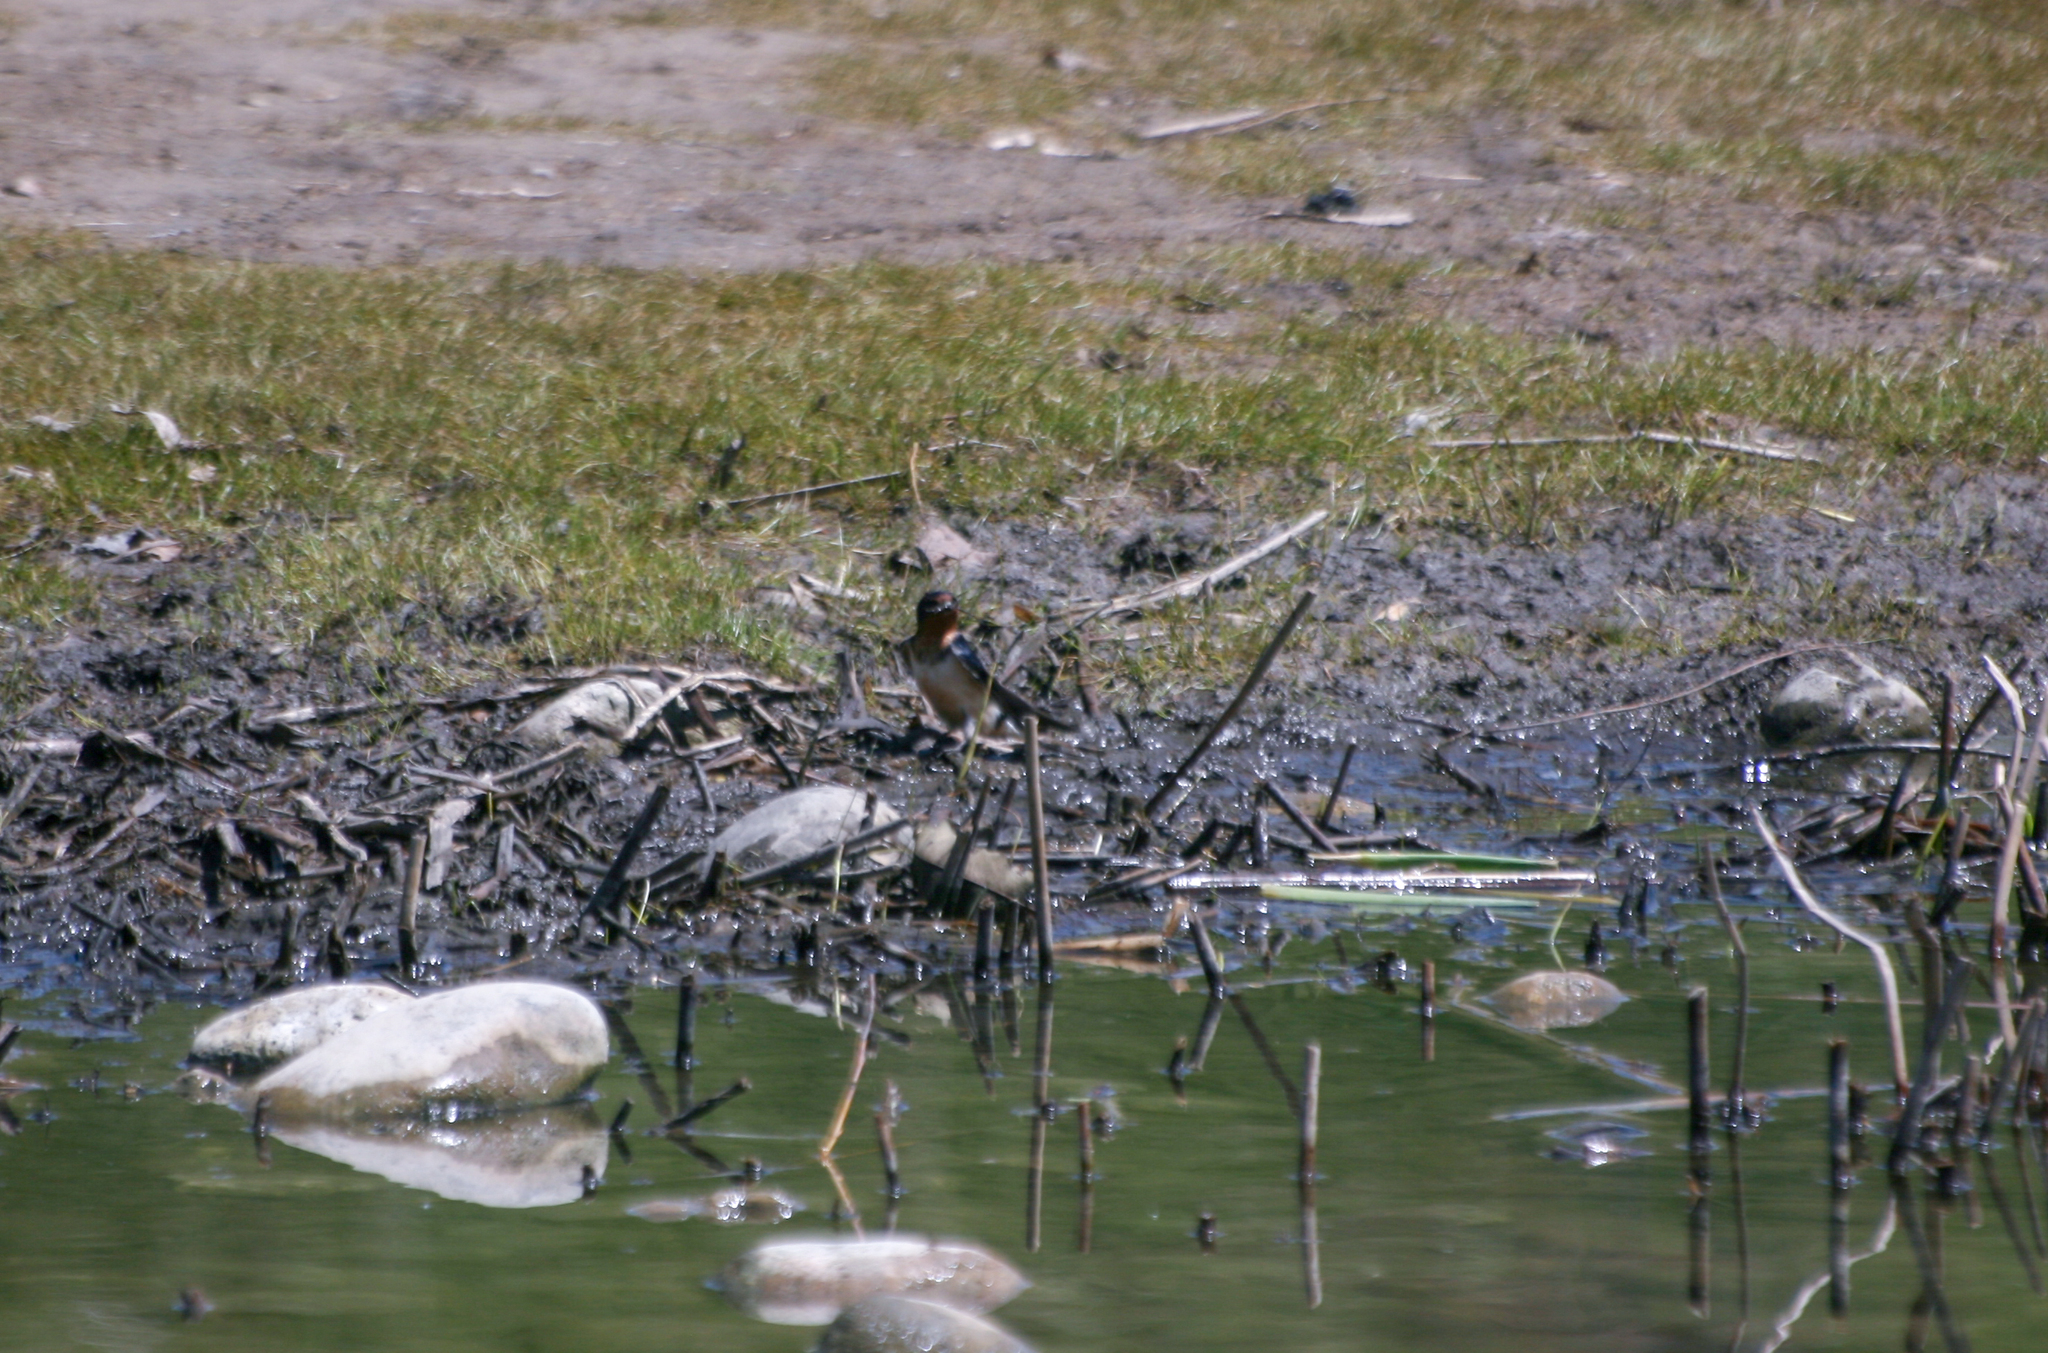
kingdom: Animalia
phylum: Chordata
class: Aves
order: Passeriformes
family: Hirundinidae
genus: Hirundo
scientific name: Hirundo rustica
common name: Barn swallow
